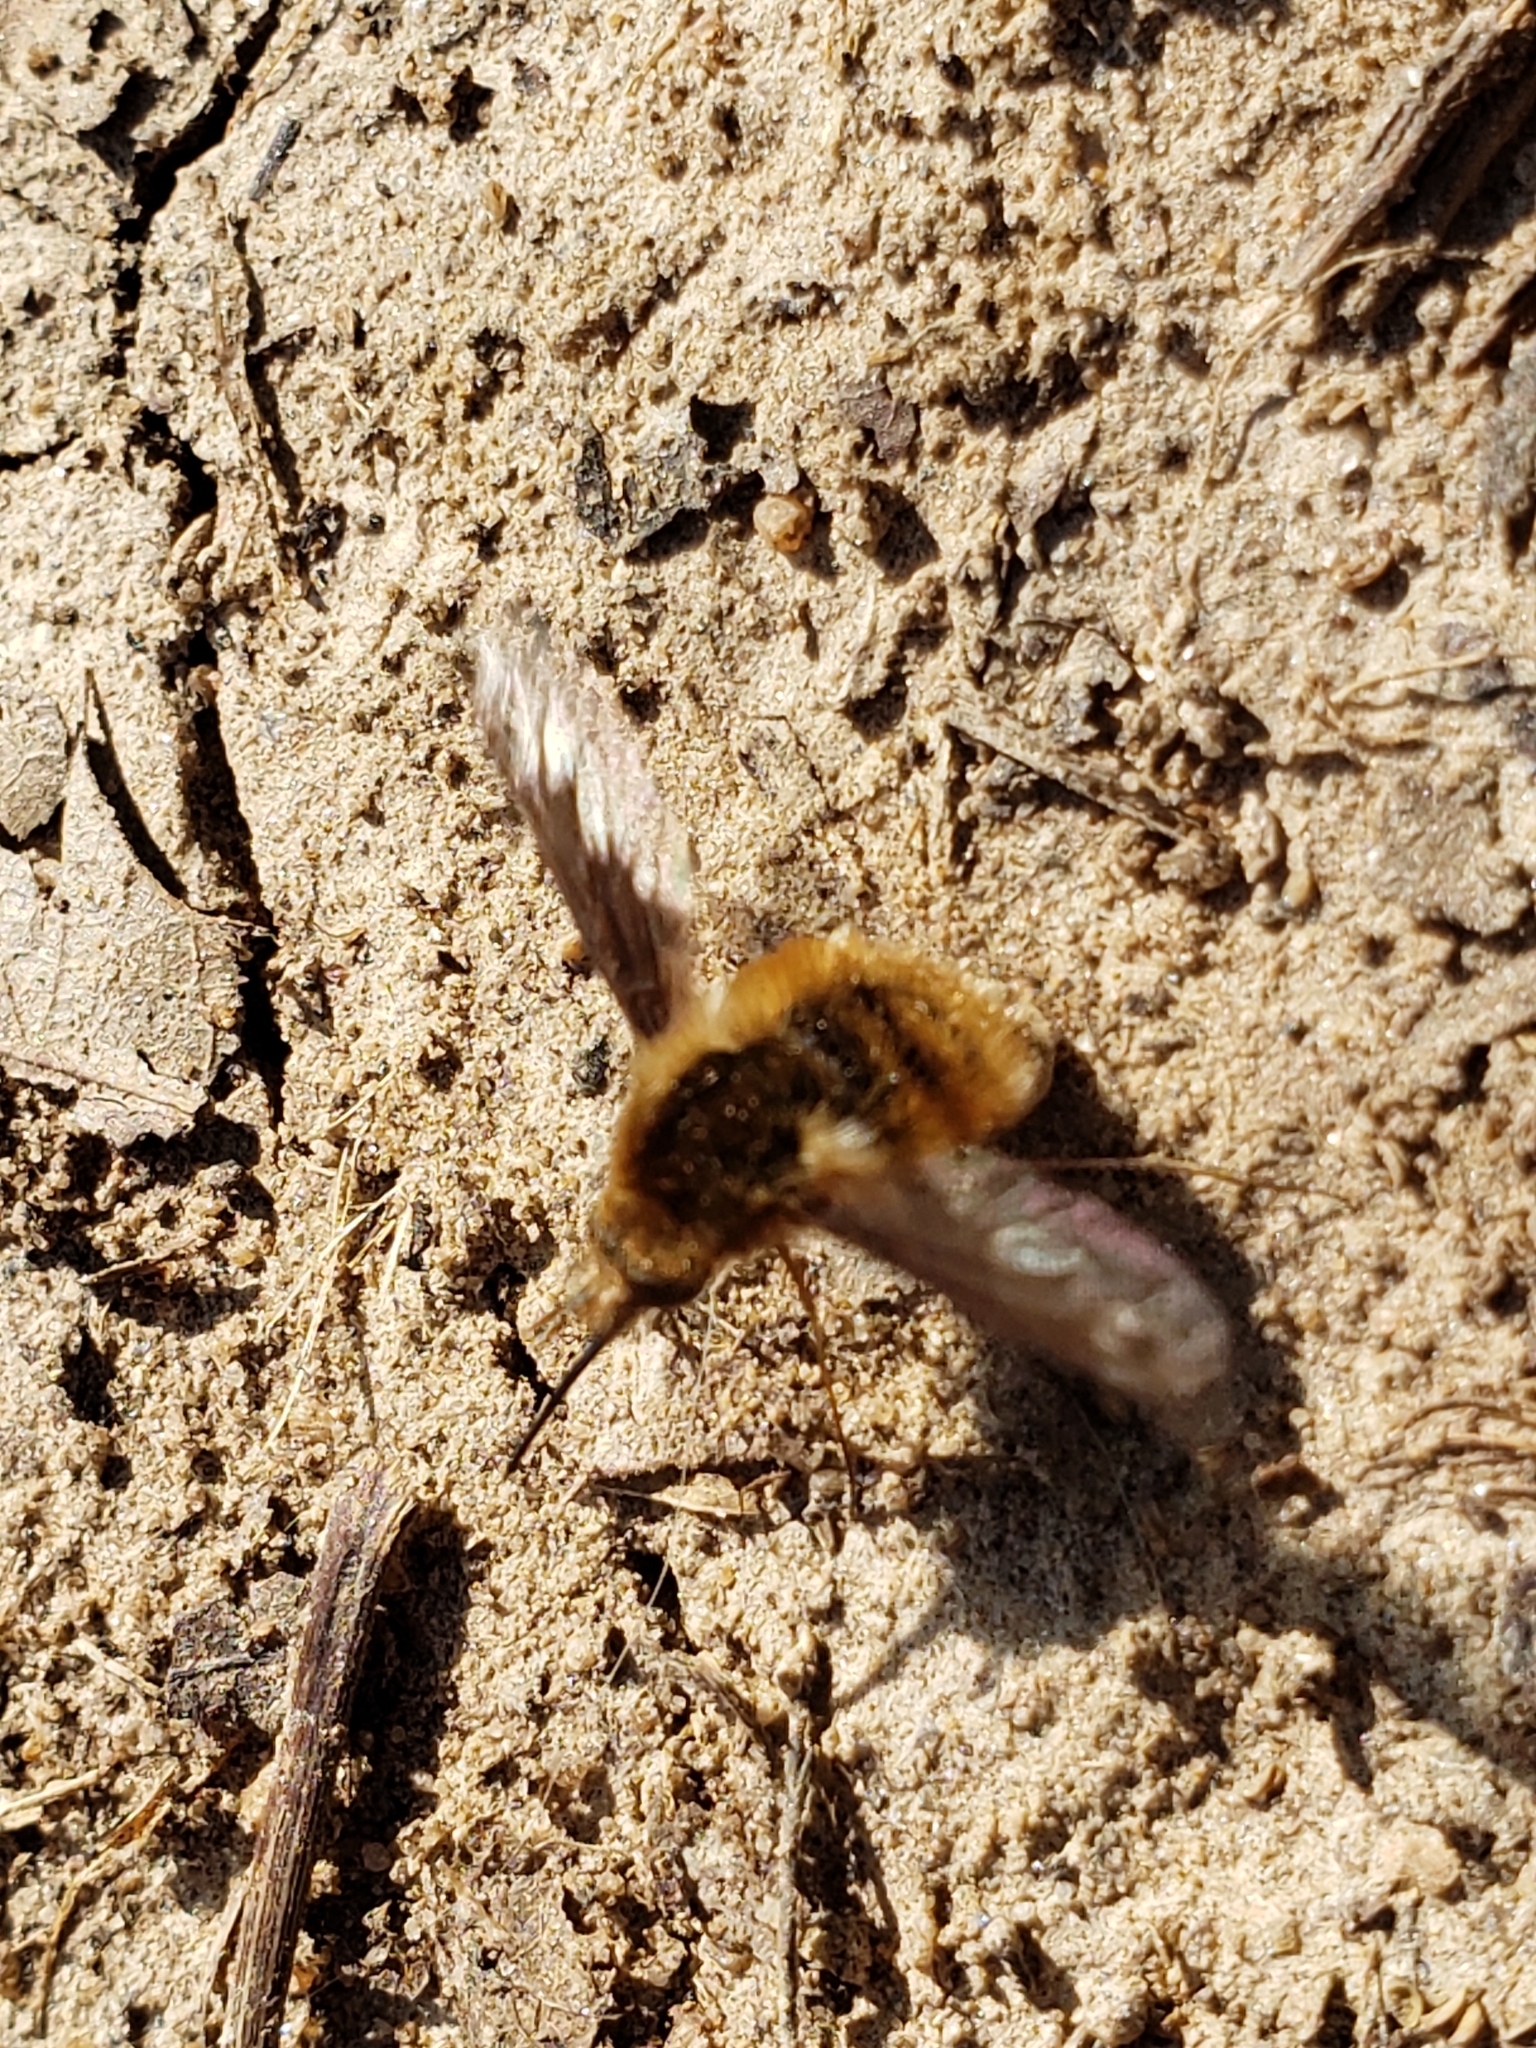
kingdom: Animalia
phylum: Arthropoda
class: Insecta
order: Diptera
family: Bombyliidae
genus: Bombylius
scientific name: Bombylius major
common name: Bee fly
